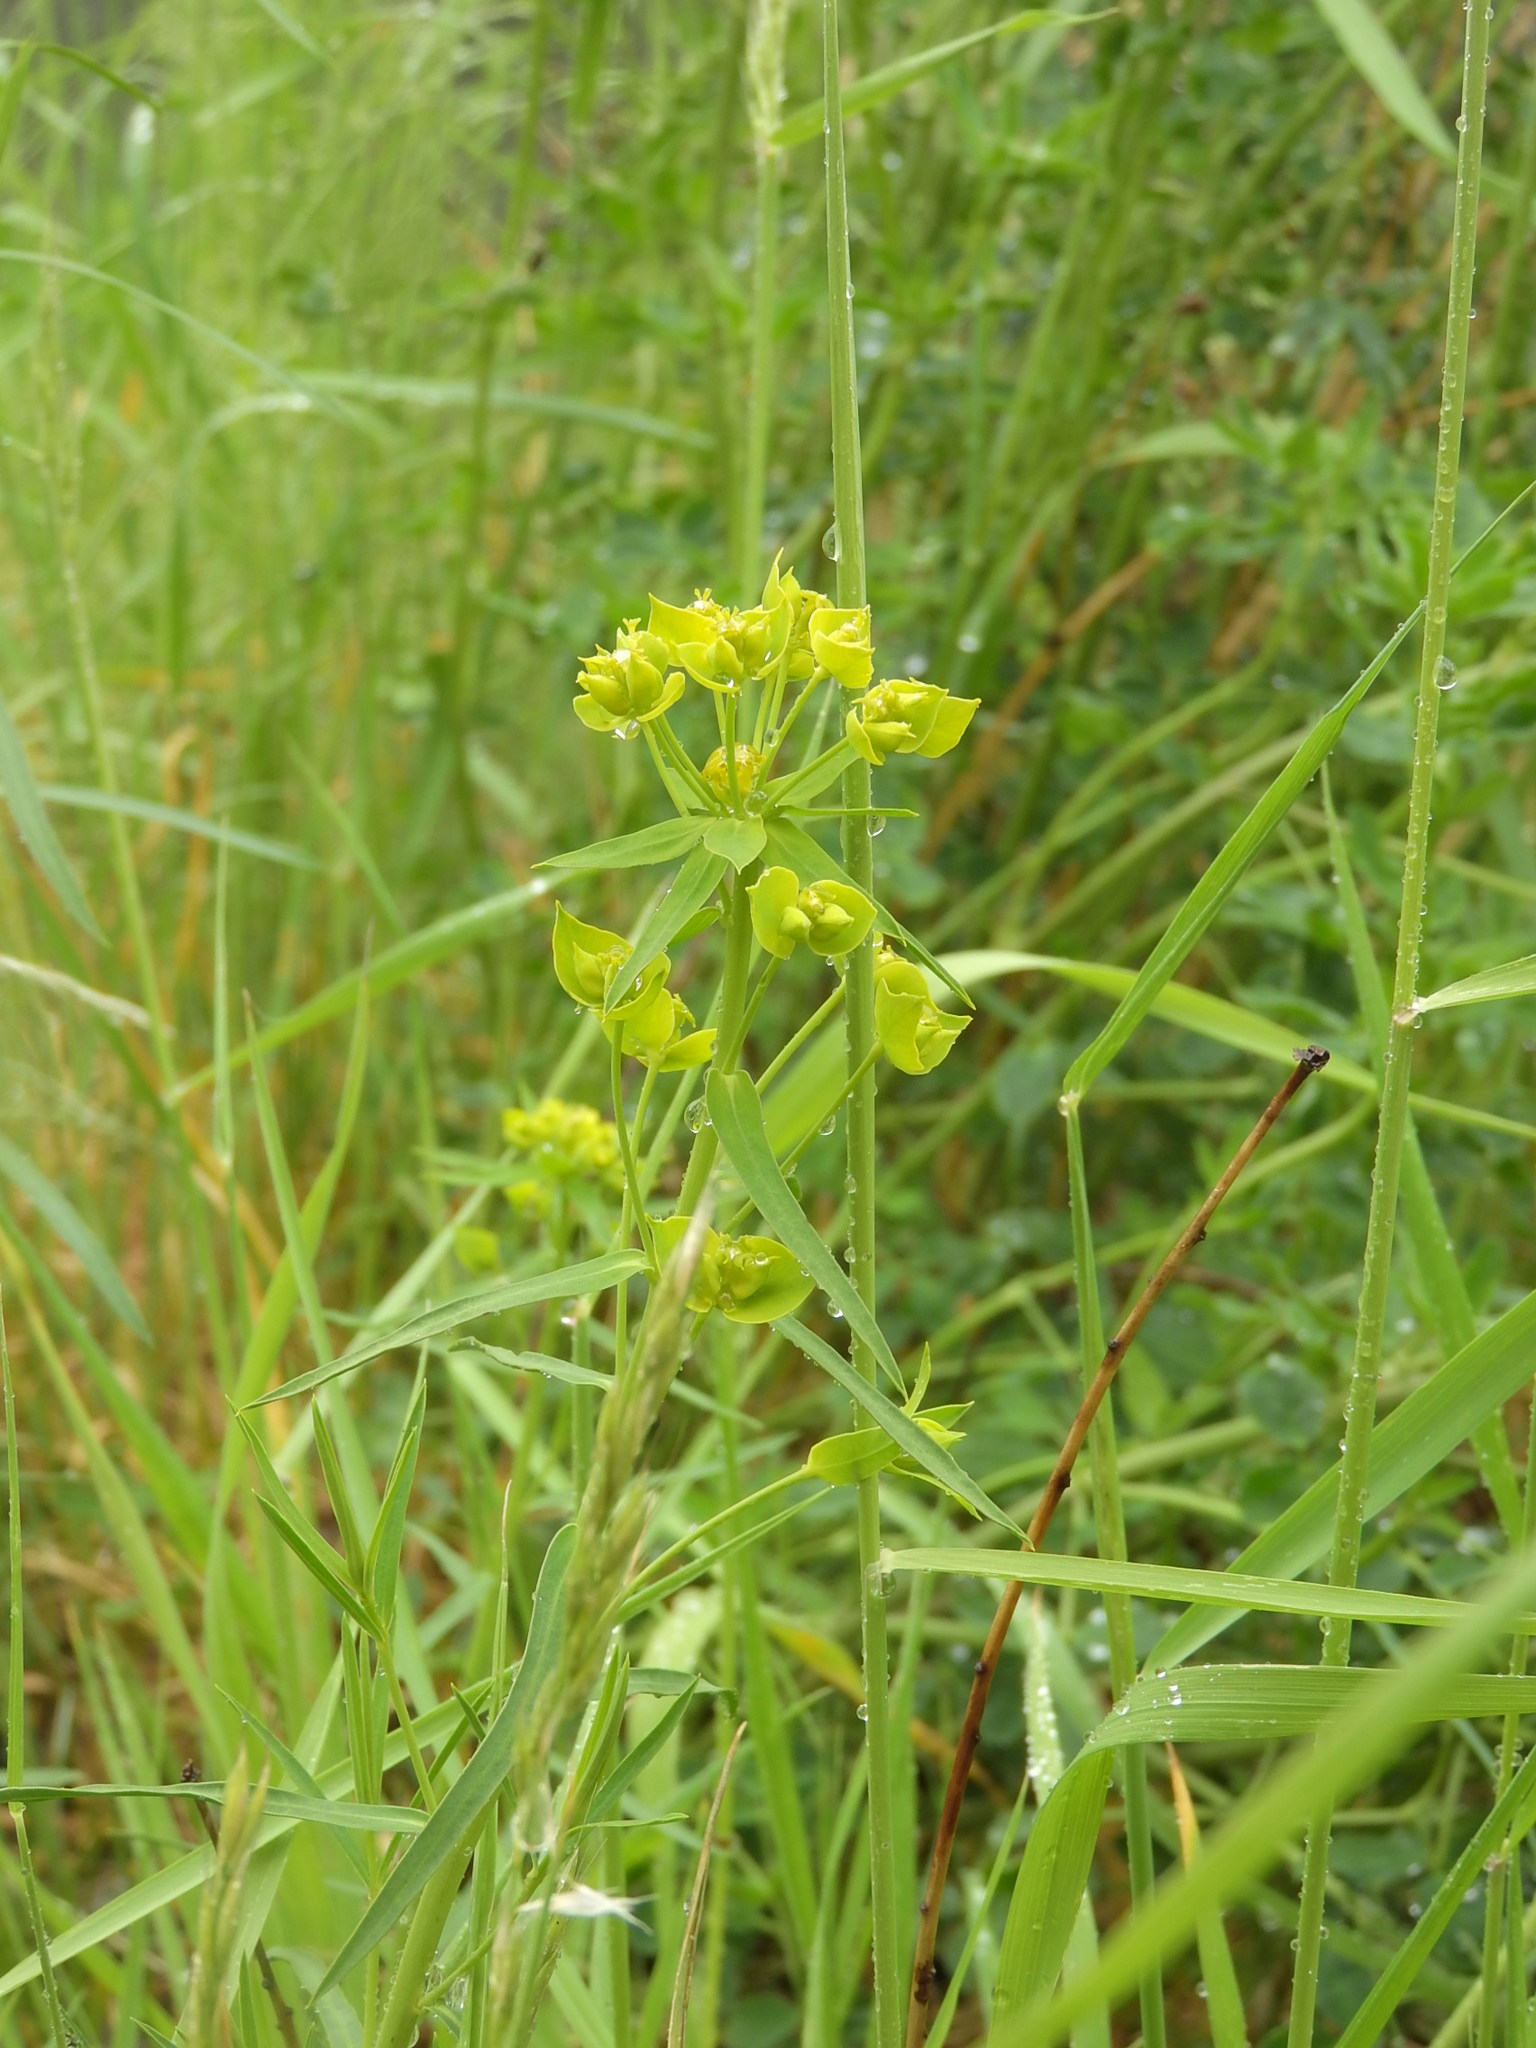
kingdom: Plantae
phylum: Tracheophyta
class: Magnoliopsida
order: Malpighiales
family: Euphorbiaceae
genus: Euphorbia
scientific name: Euphorbia virgata
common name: Leafy spurge
